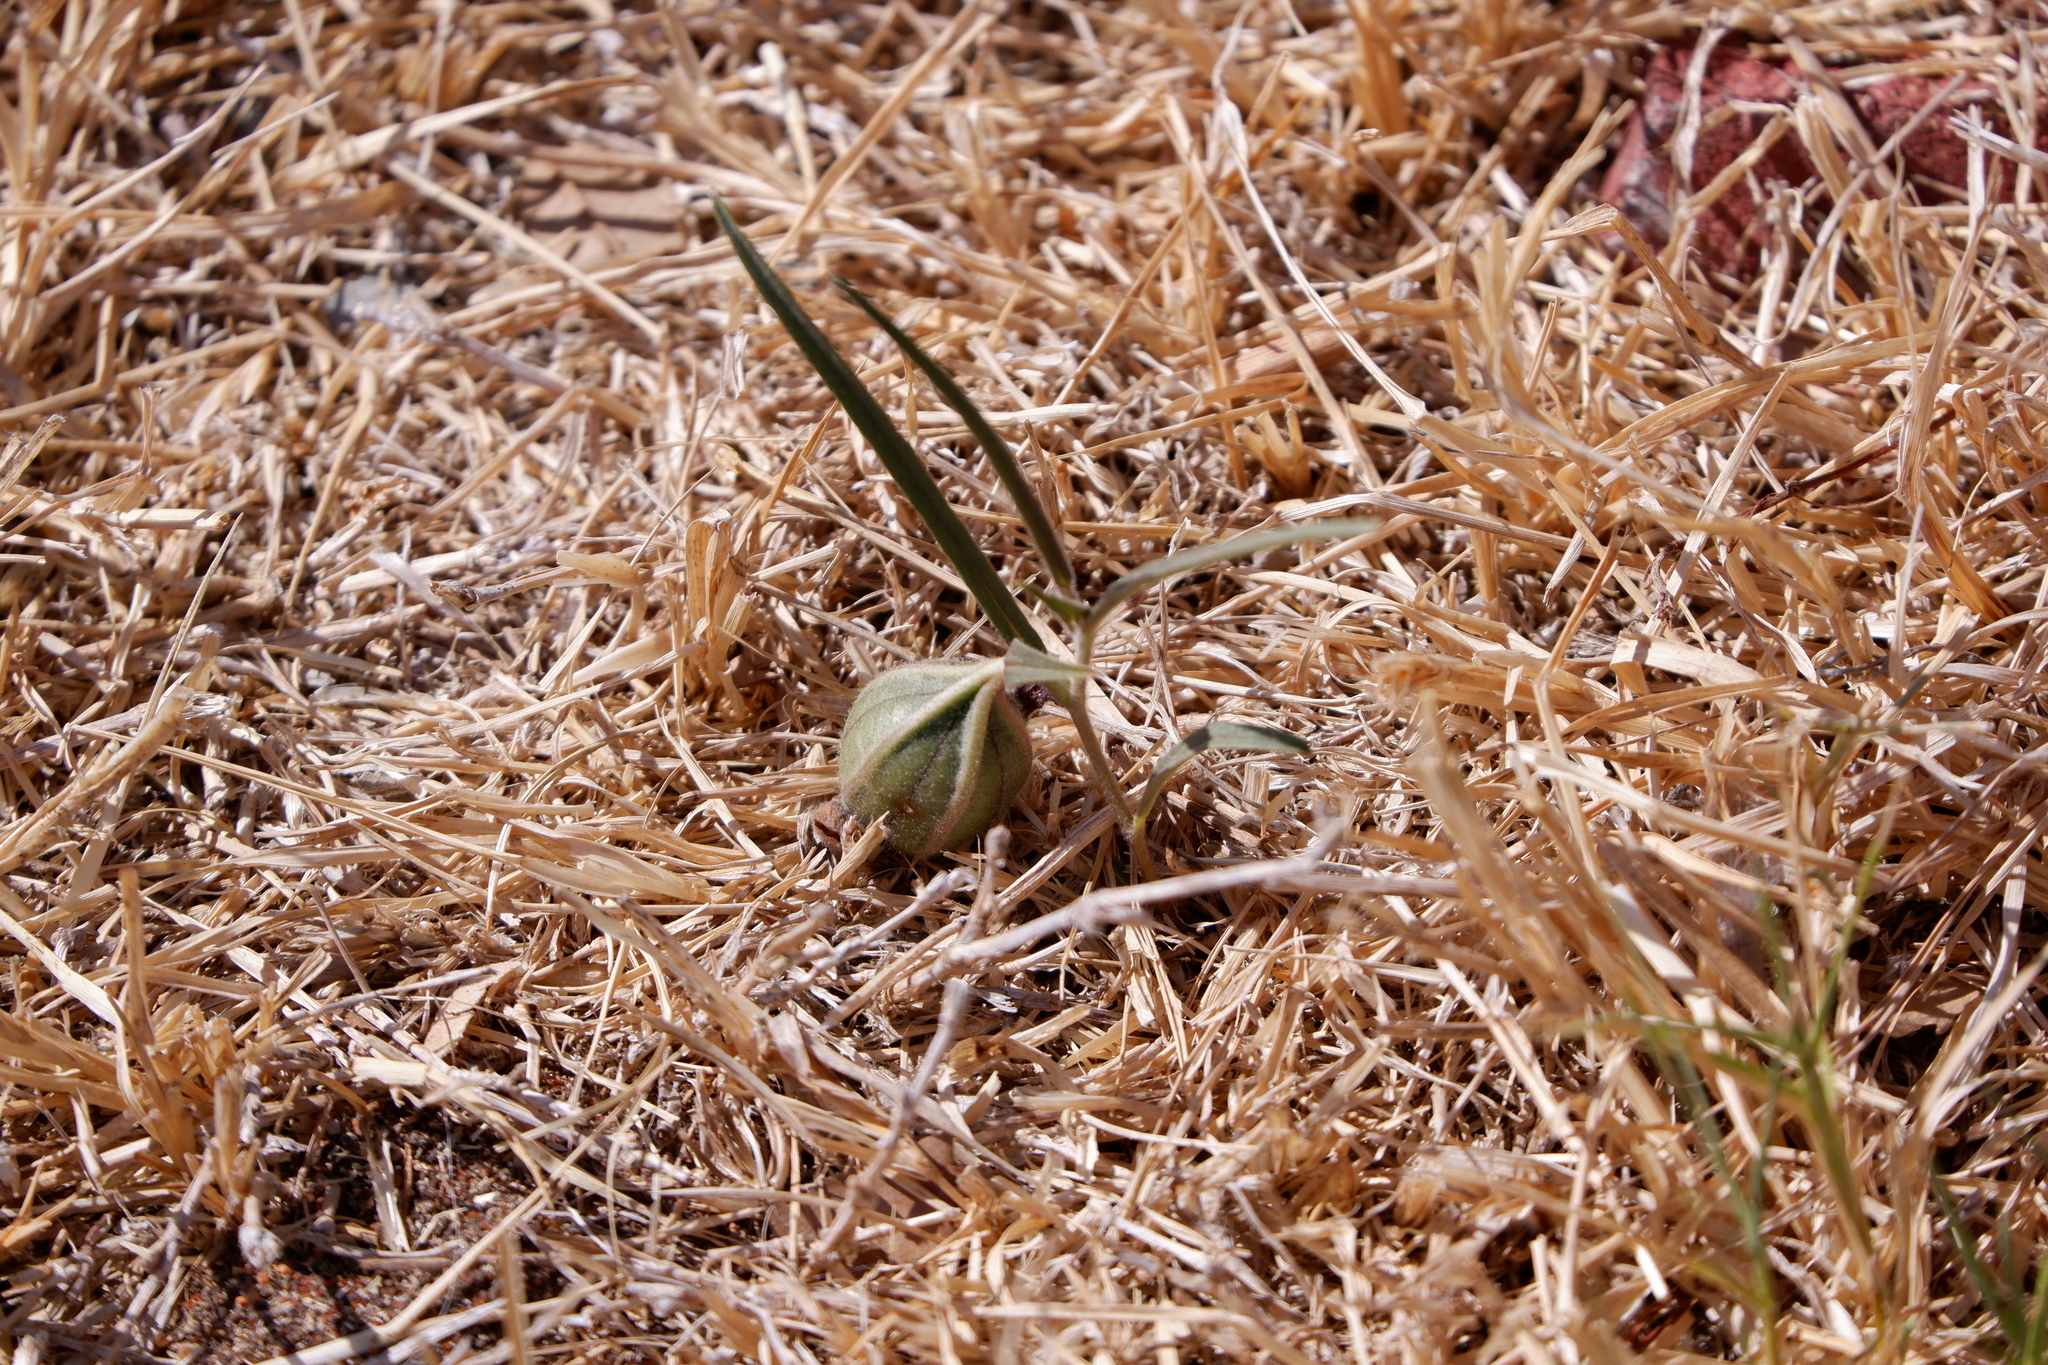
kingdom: Plantae
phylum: Tracheophyta
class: Magnoliopsida
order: Piperales
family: Aristolochiaceae
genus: Aristolochia
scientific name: Aristolochia erecta
